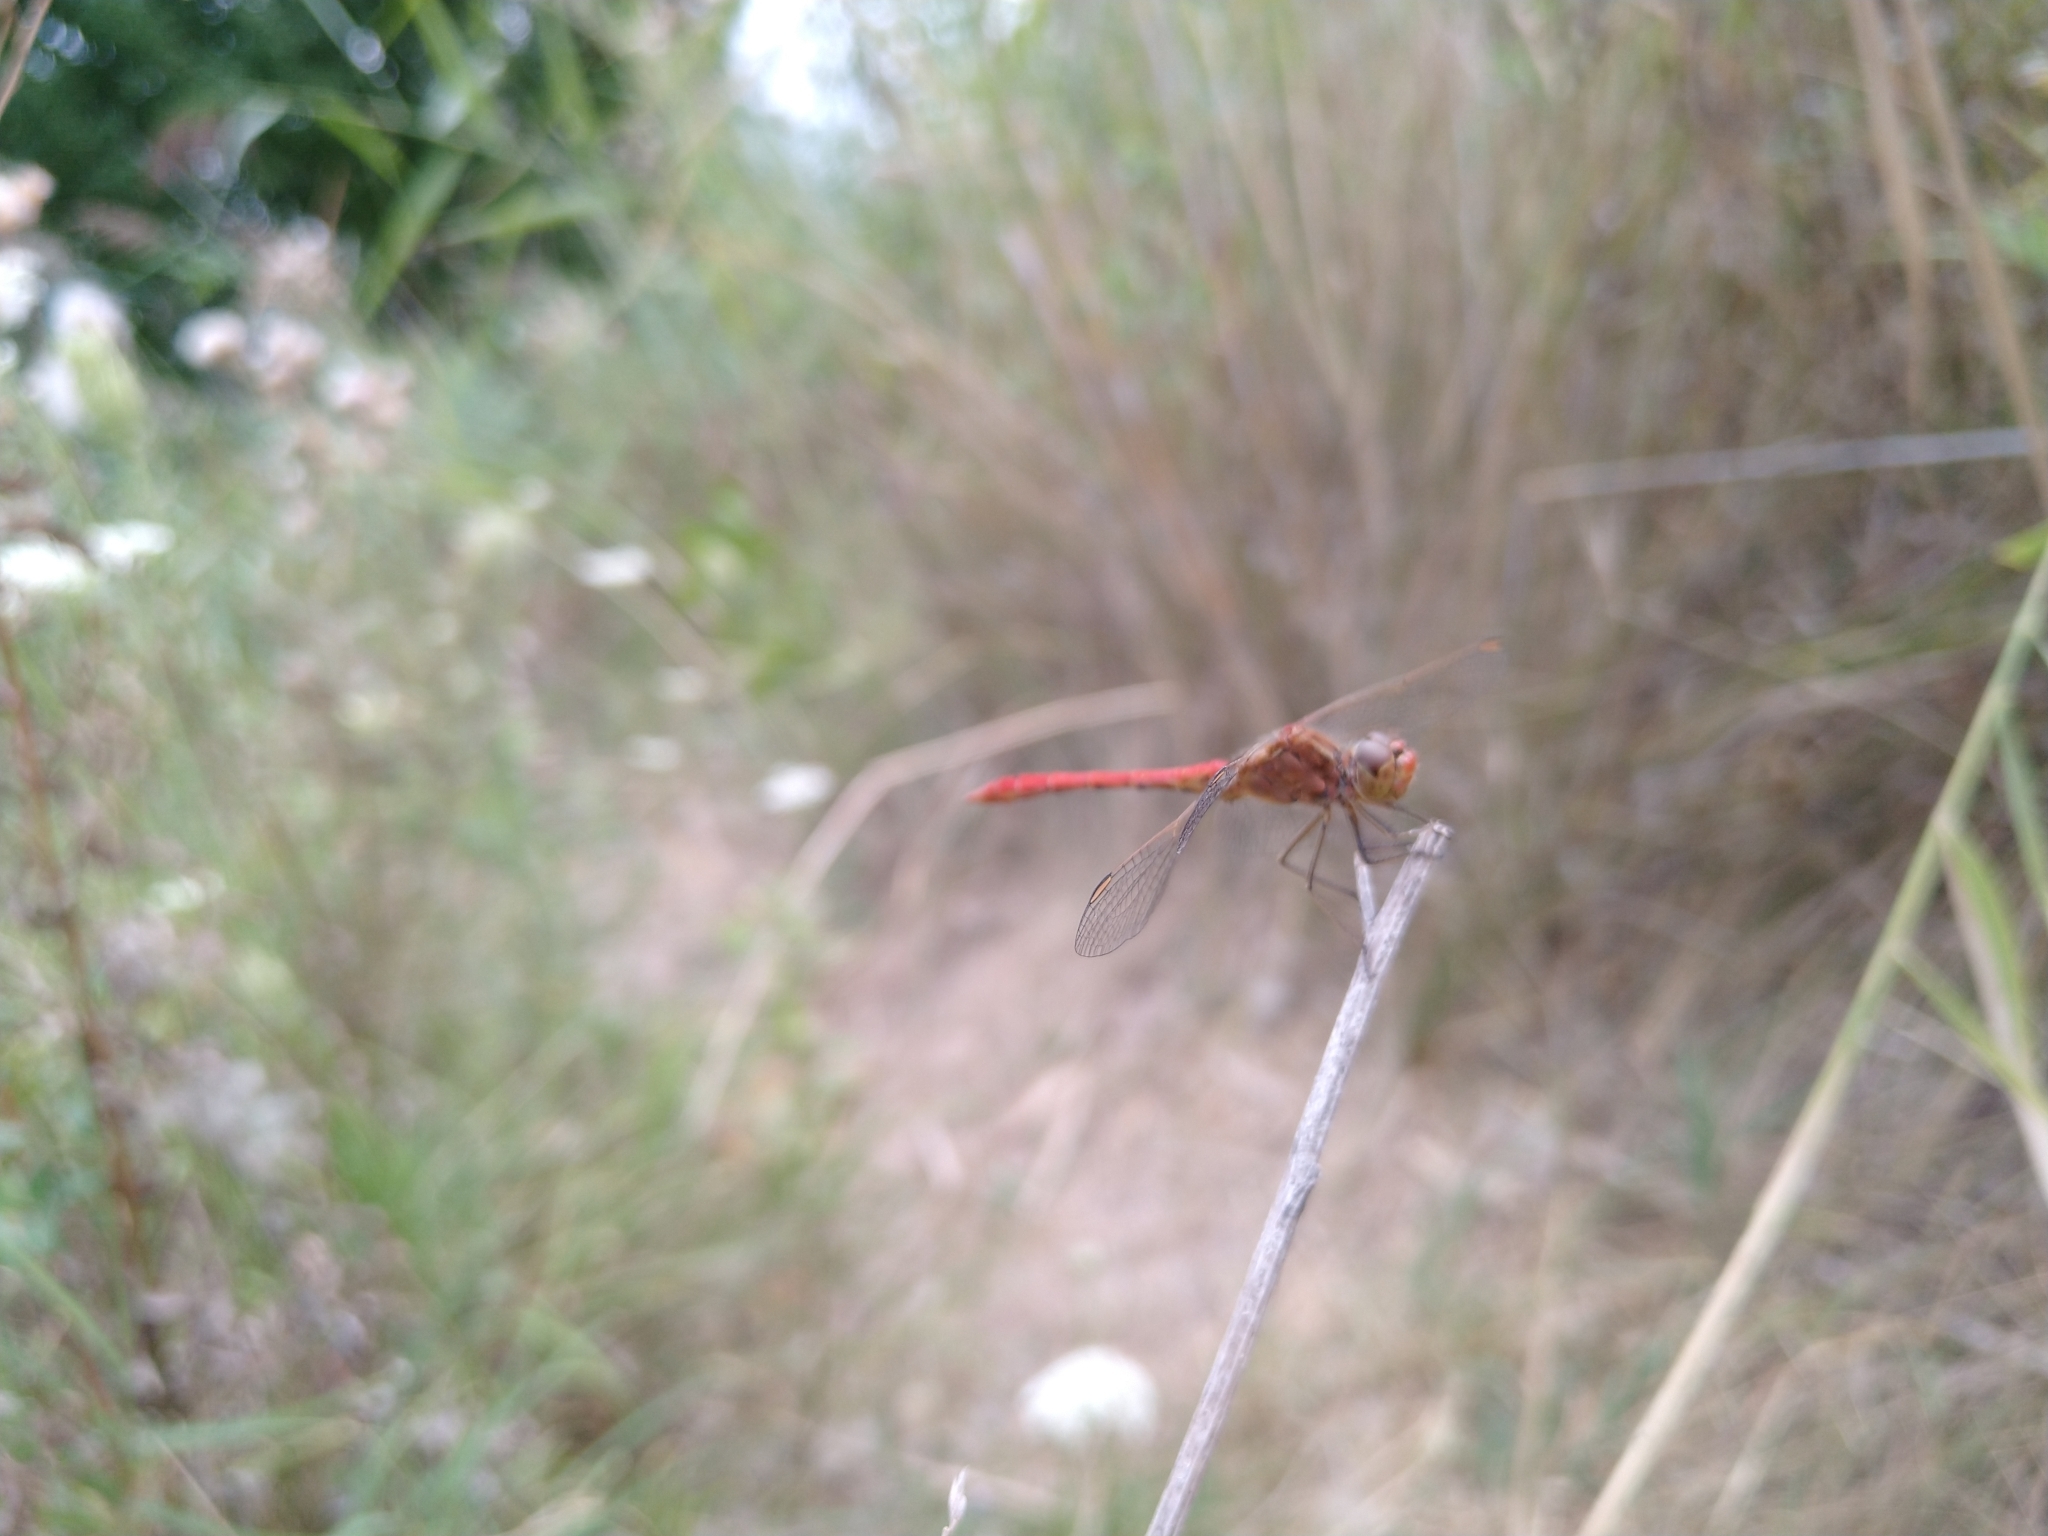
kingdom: Animalia
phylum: Arthropoda
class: Insecta
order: Odonata
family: Libellulidae
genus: Sympetrum
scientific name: Sympetrum meridionale
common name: Southern darter
